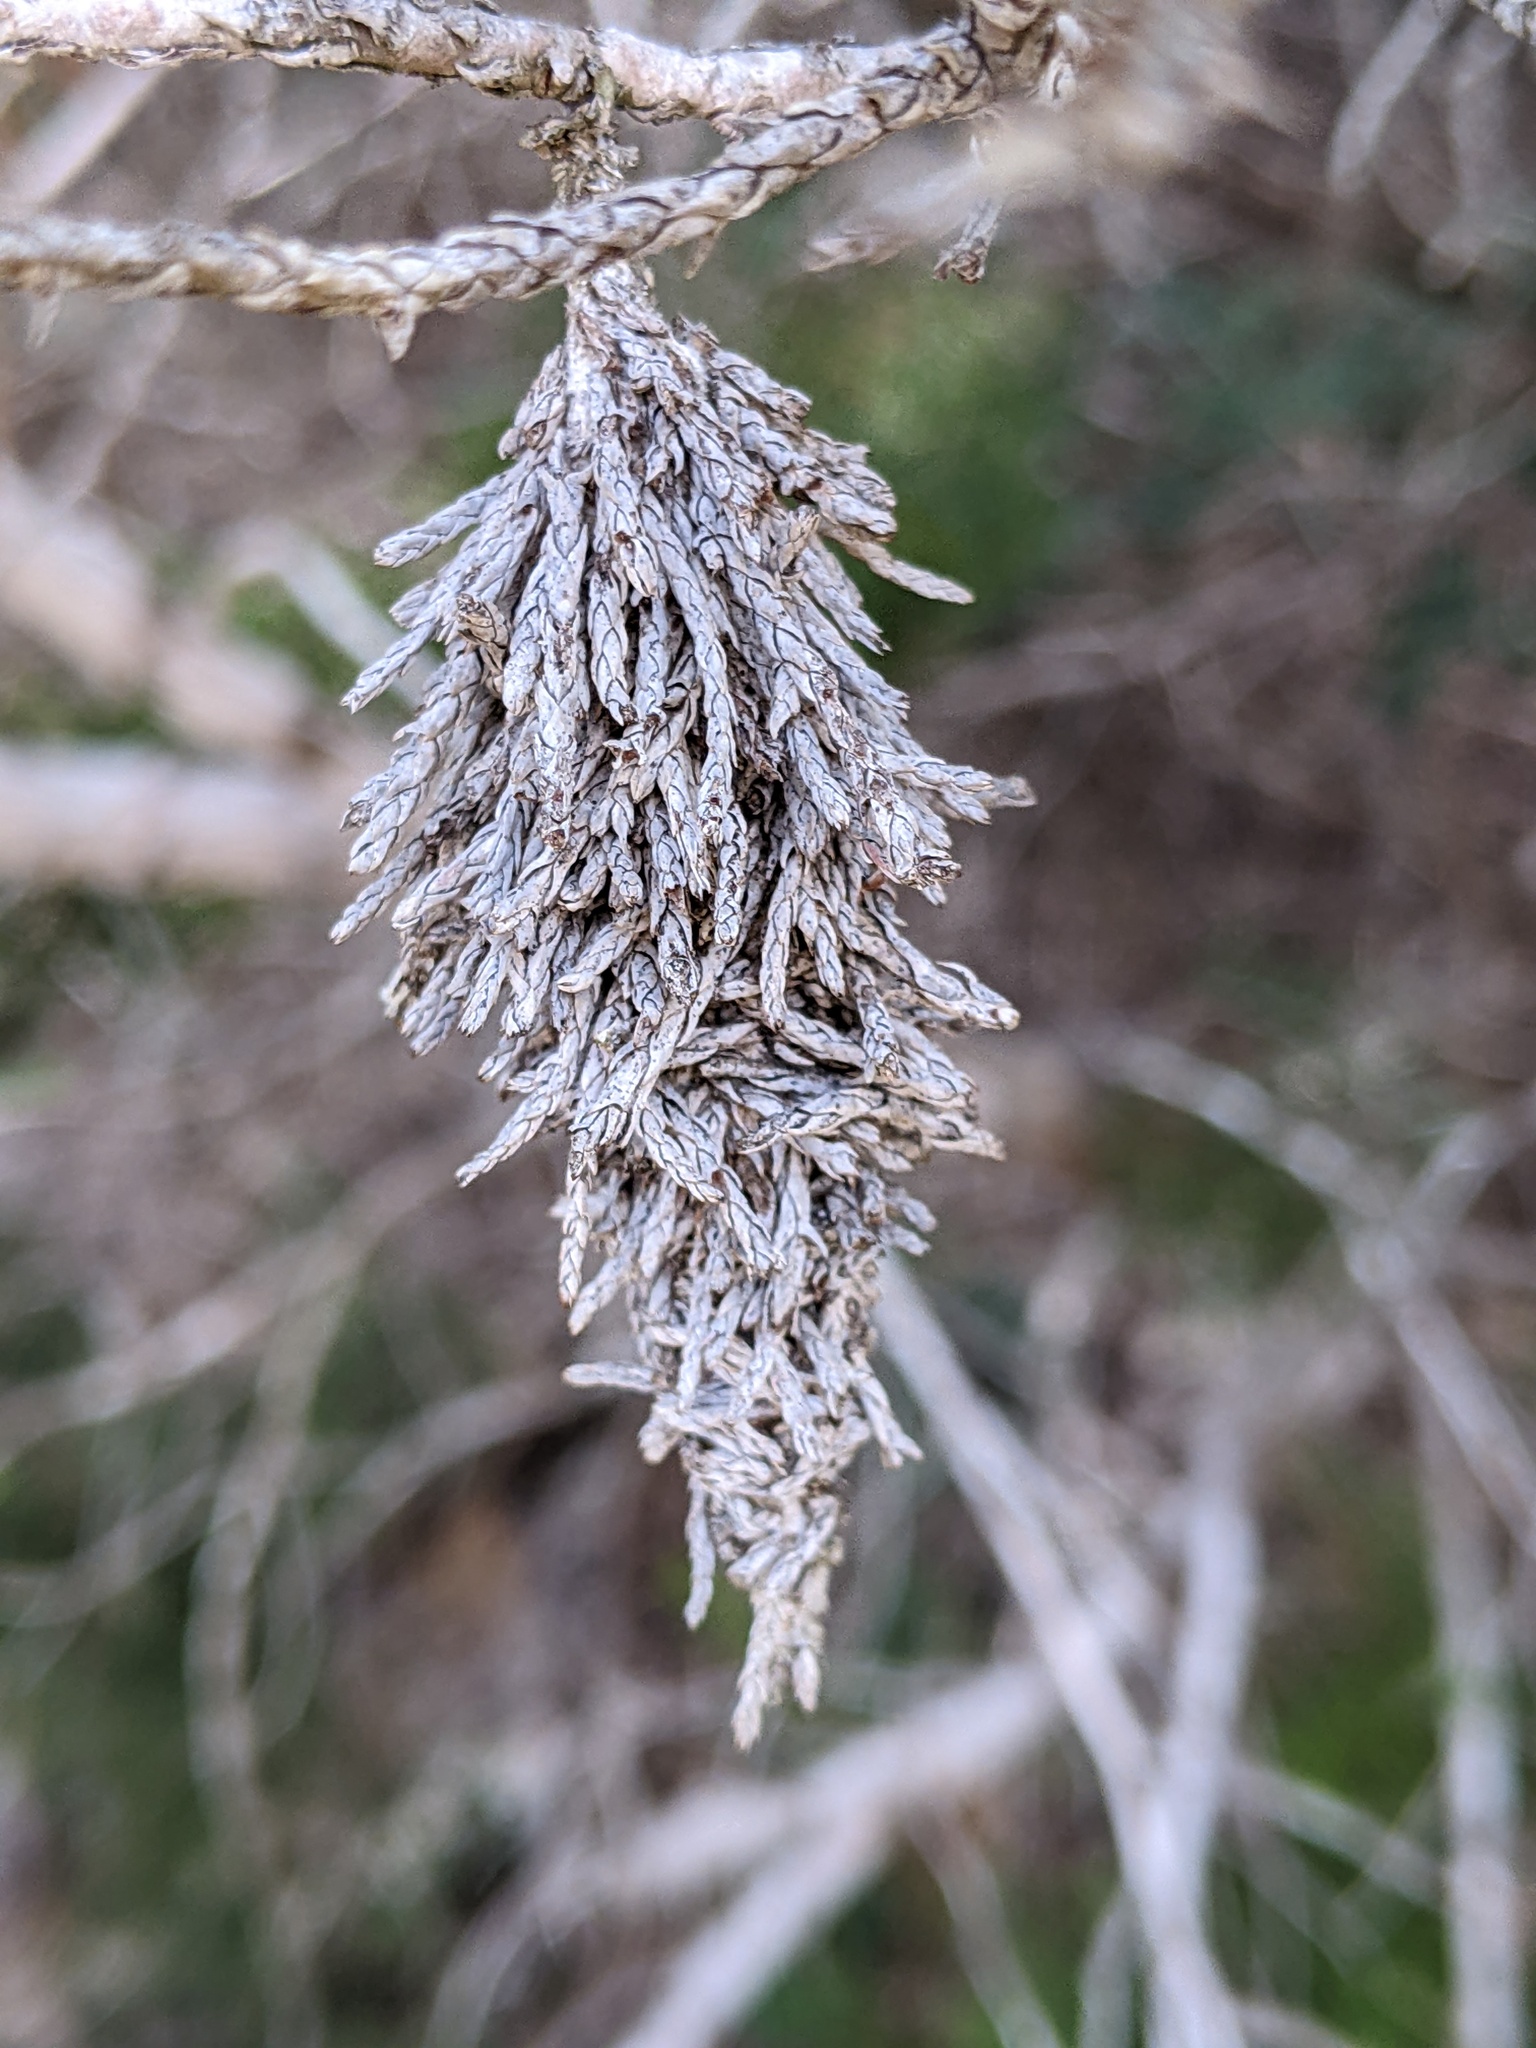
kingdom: Animalia
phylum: Arthropoda
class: Insecta
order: Lepidoptera
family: Psychidae
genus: Thyridopteryx
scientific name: Thyridopteryx ephemeraeformis
